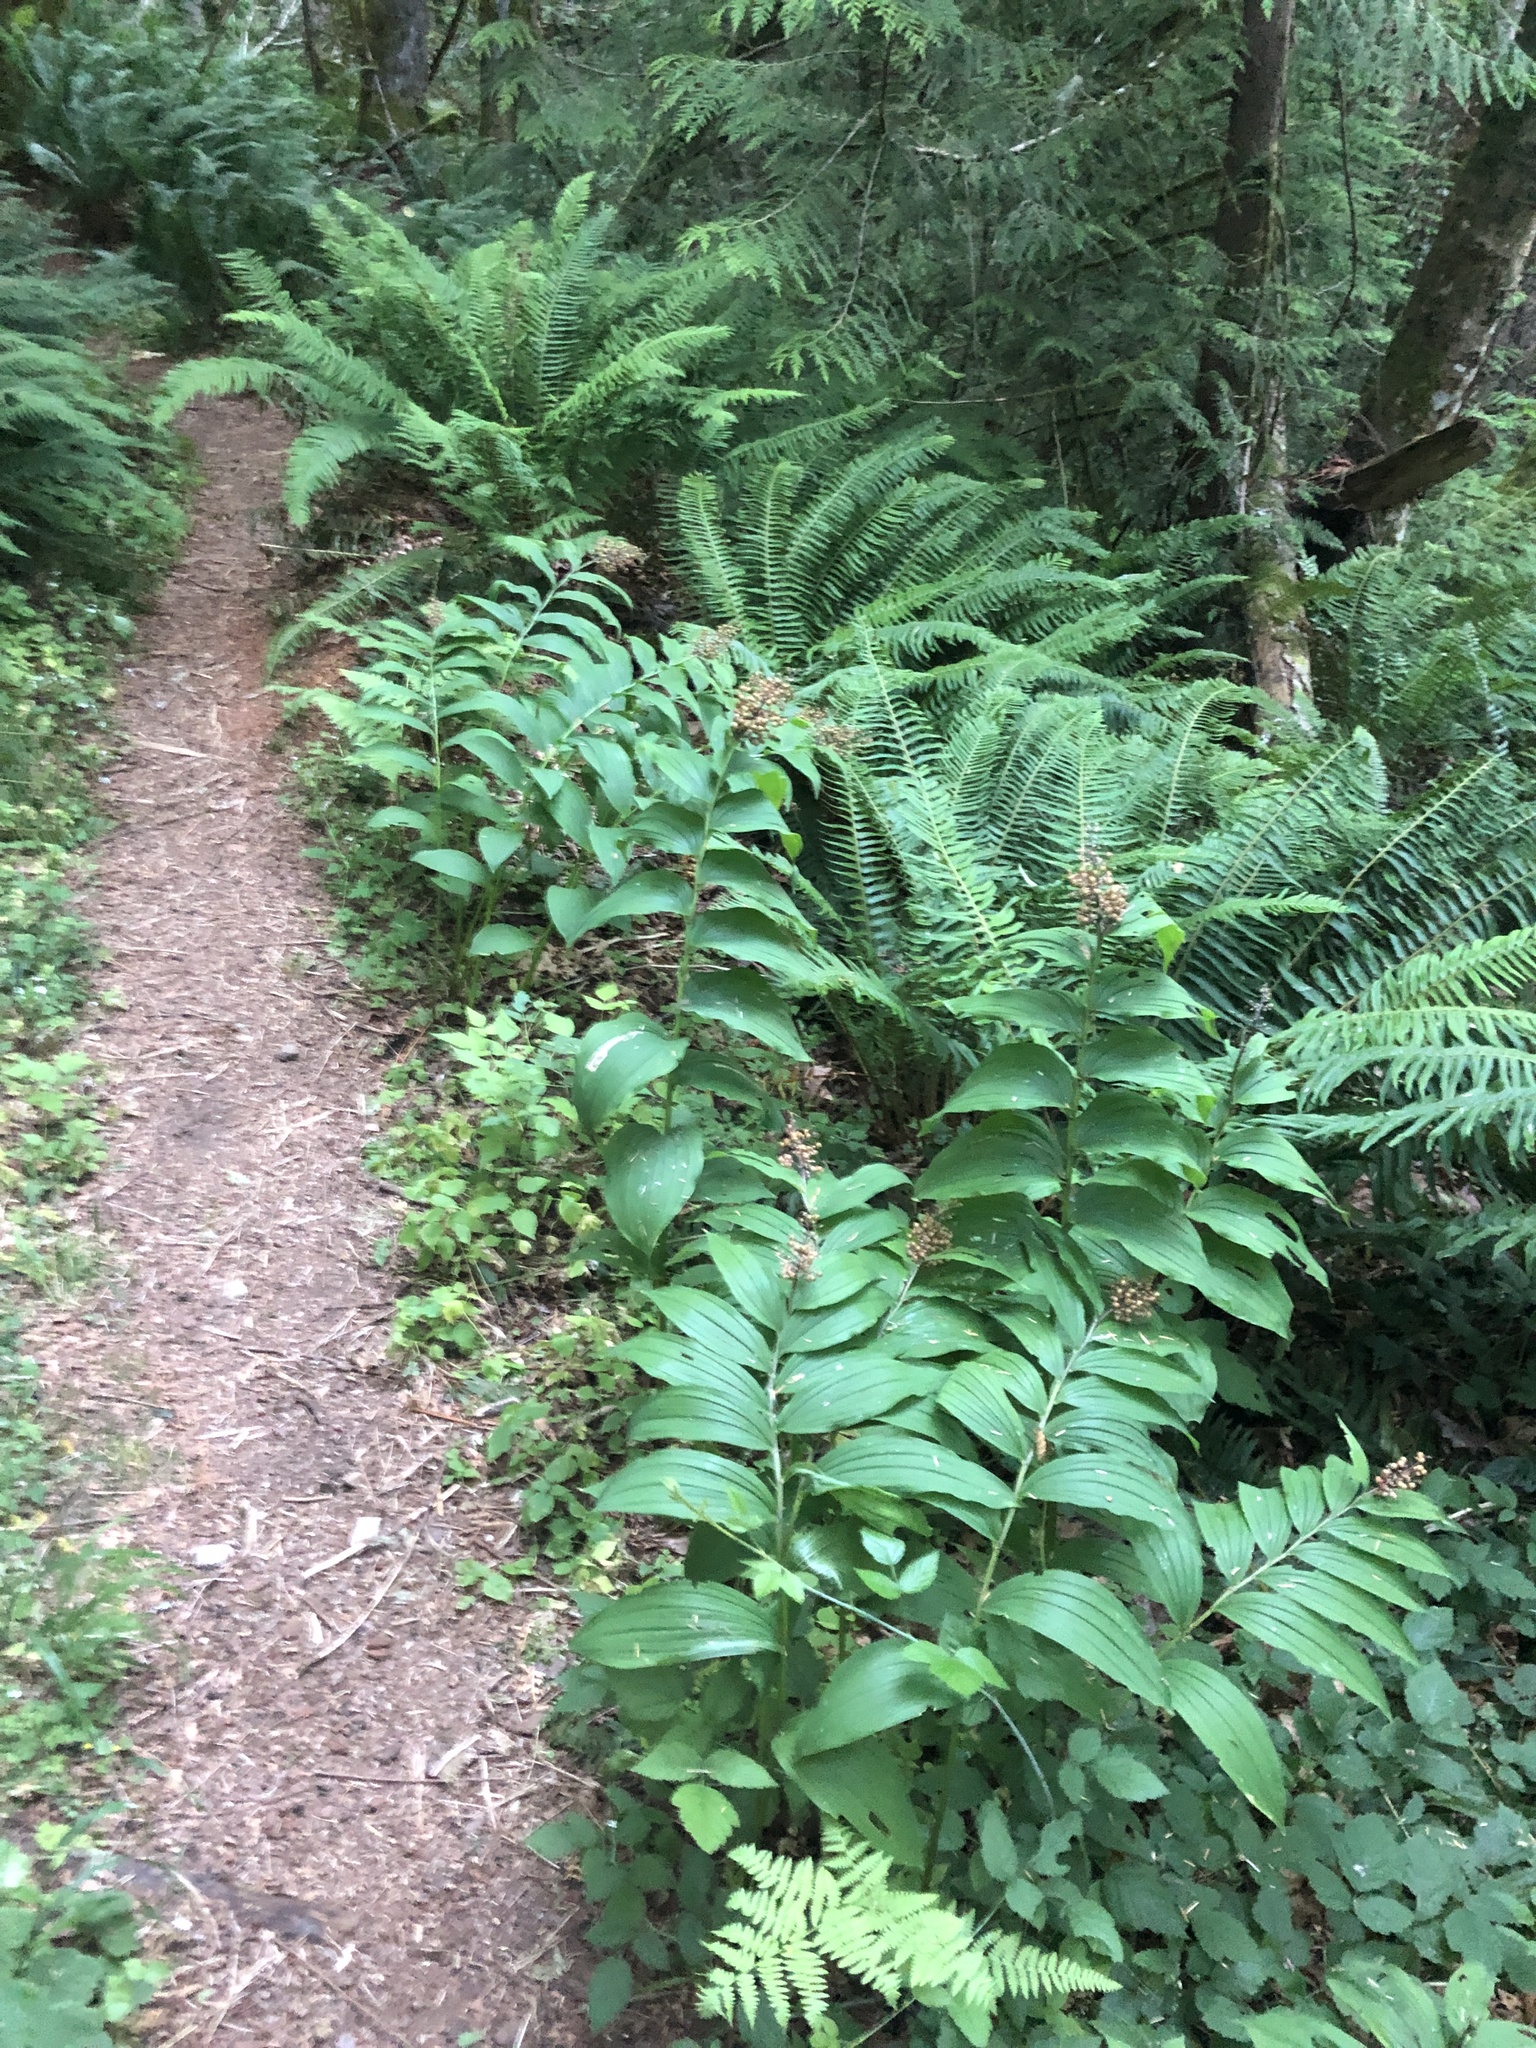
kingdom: Plantae
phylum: Tracheophyta
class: Liliopsida
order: Asparagales
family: Asparagaceae
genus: Maianthemum
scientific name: Maianthemum racemosum
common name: False spikenard
